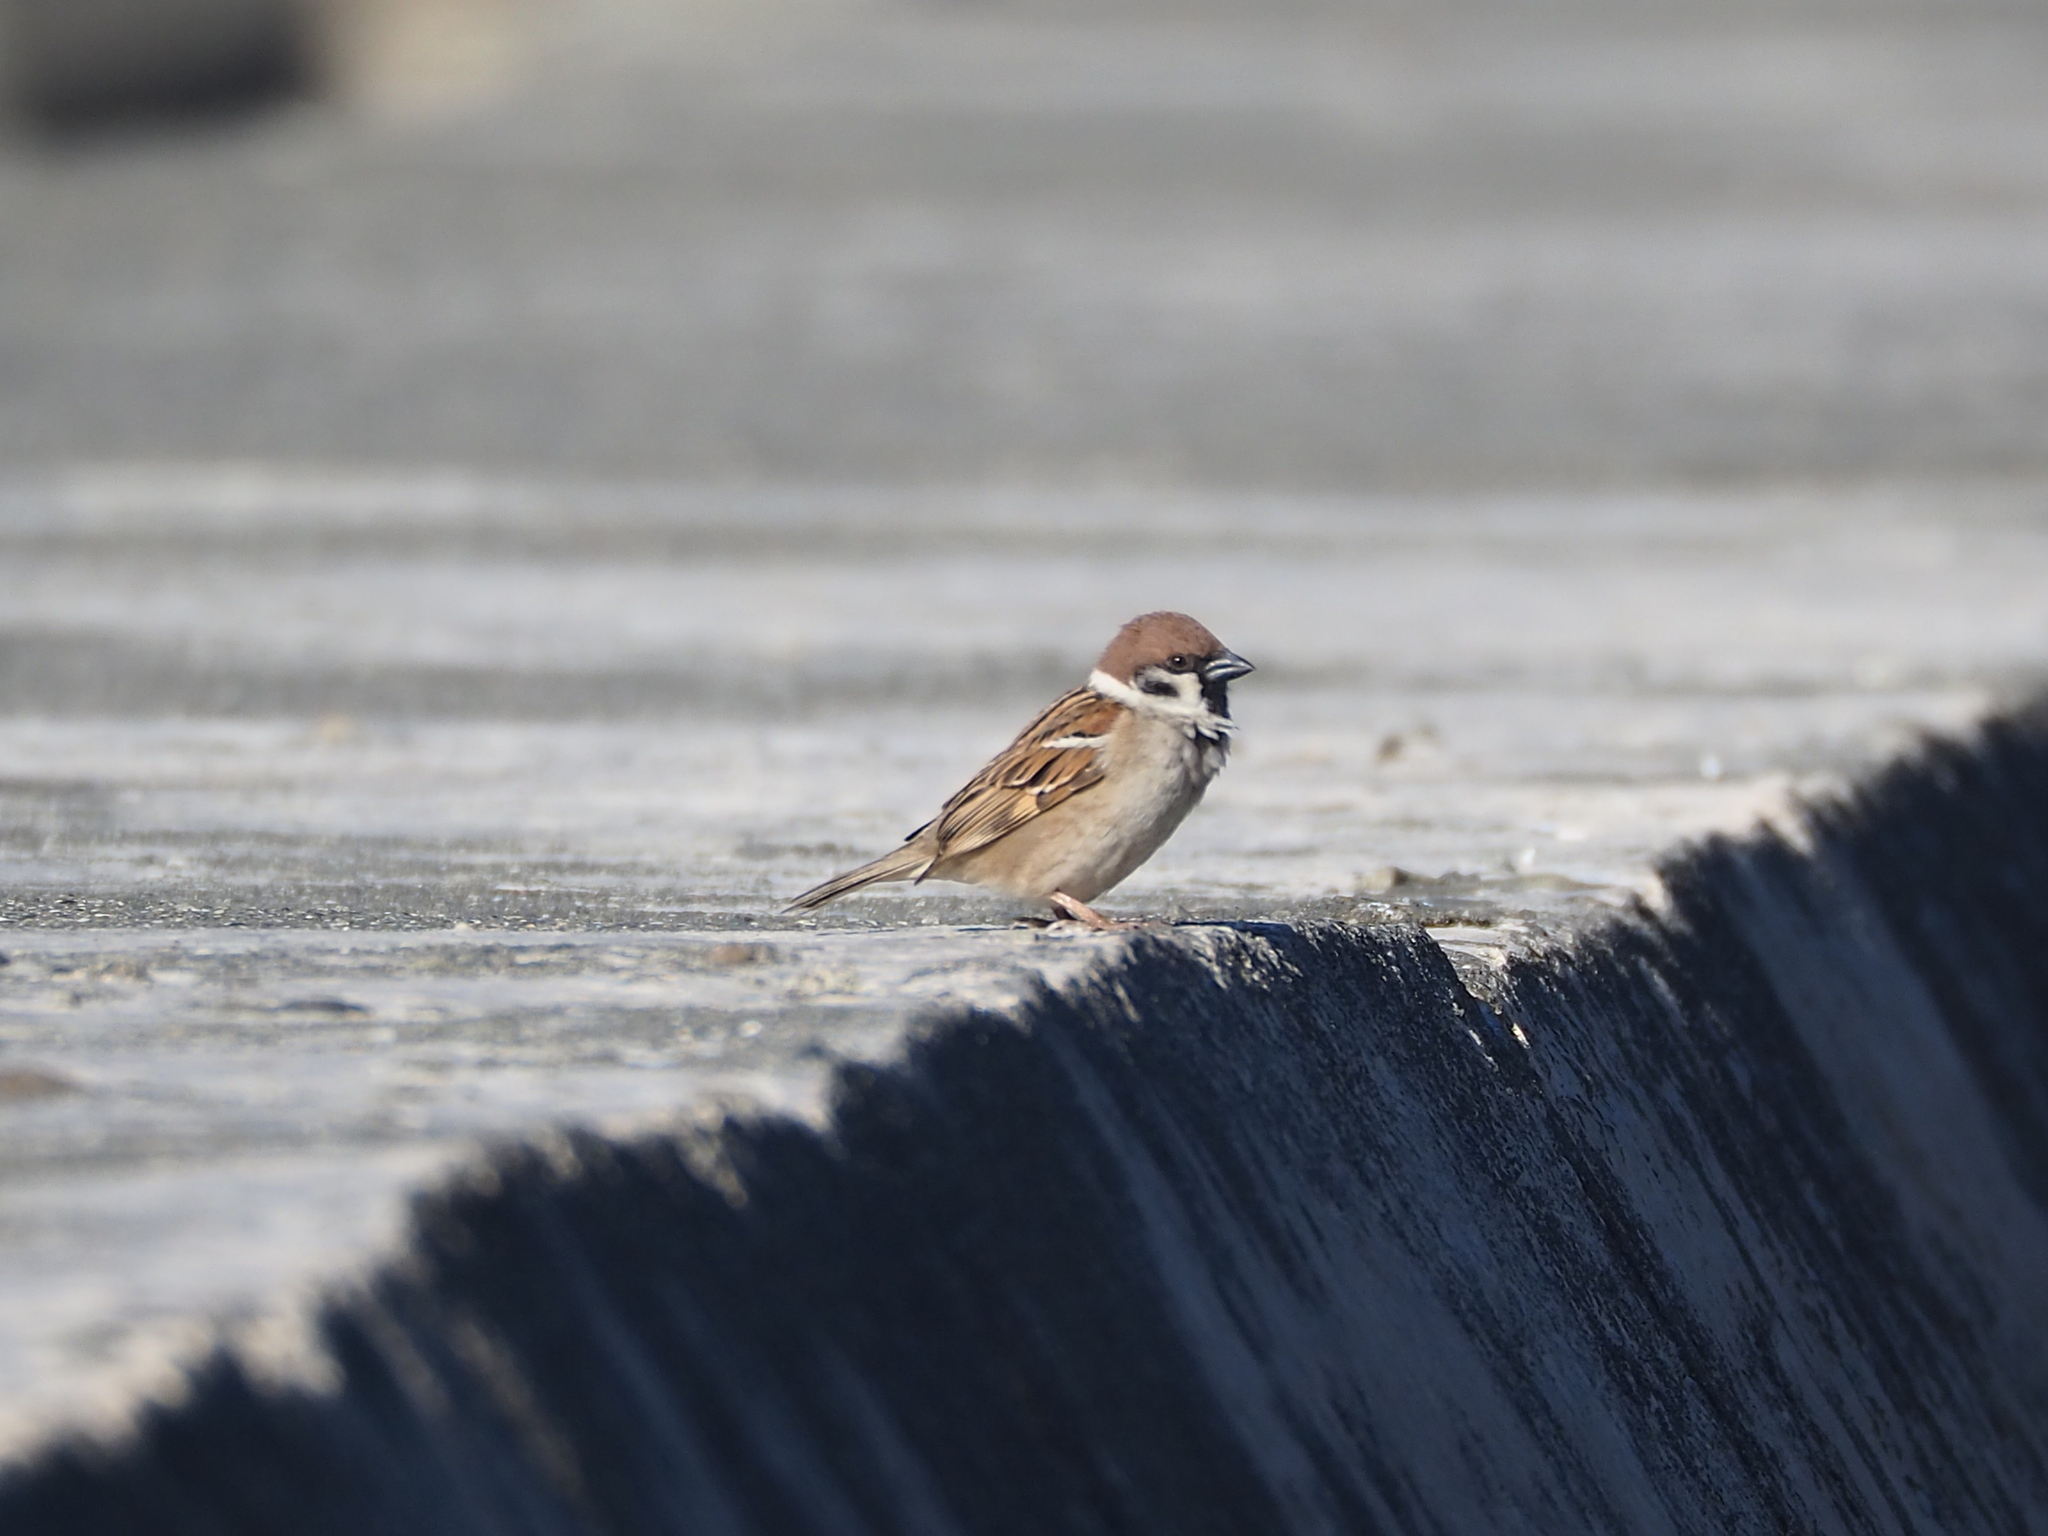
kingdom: Animalia
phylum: Chordata
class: Aves
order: Passeriformes
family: Passeridae
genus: Passer
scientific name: Passer montanus
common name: Eurasian tree sparrow
